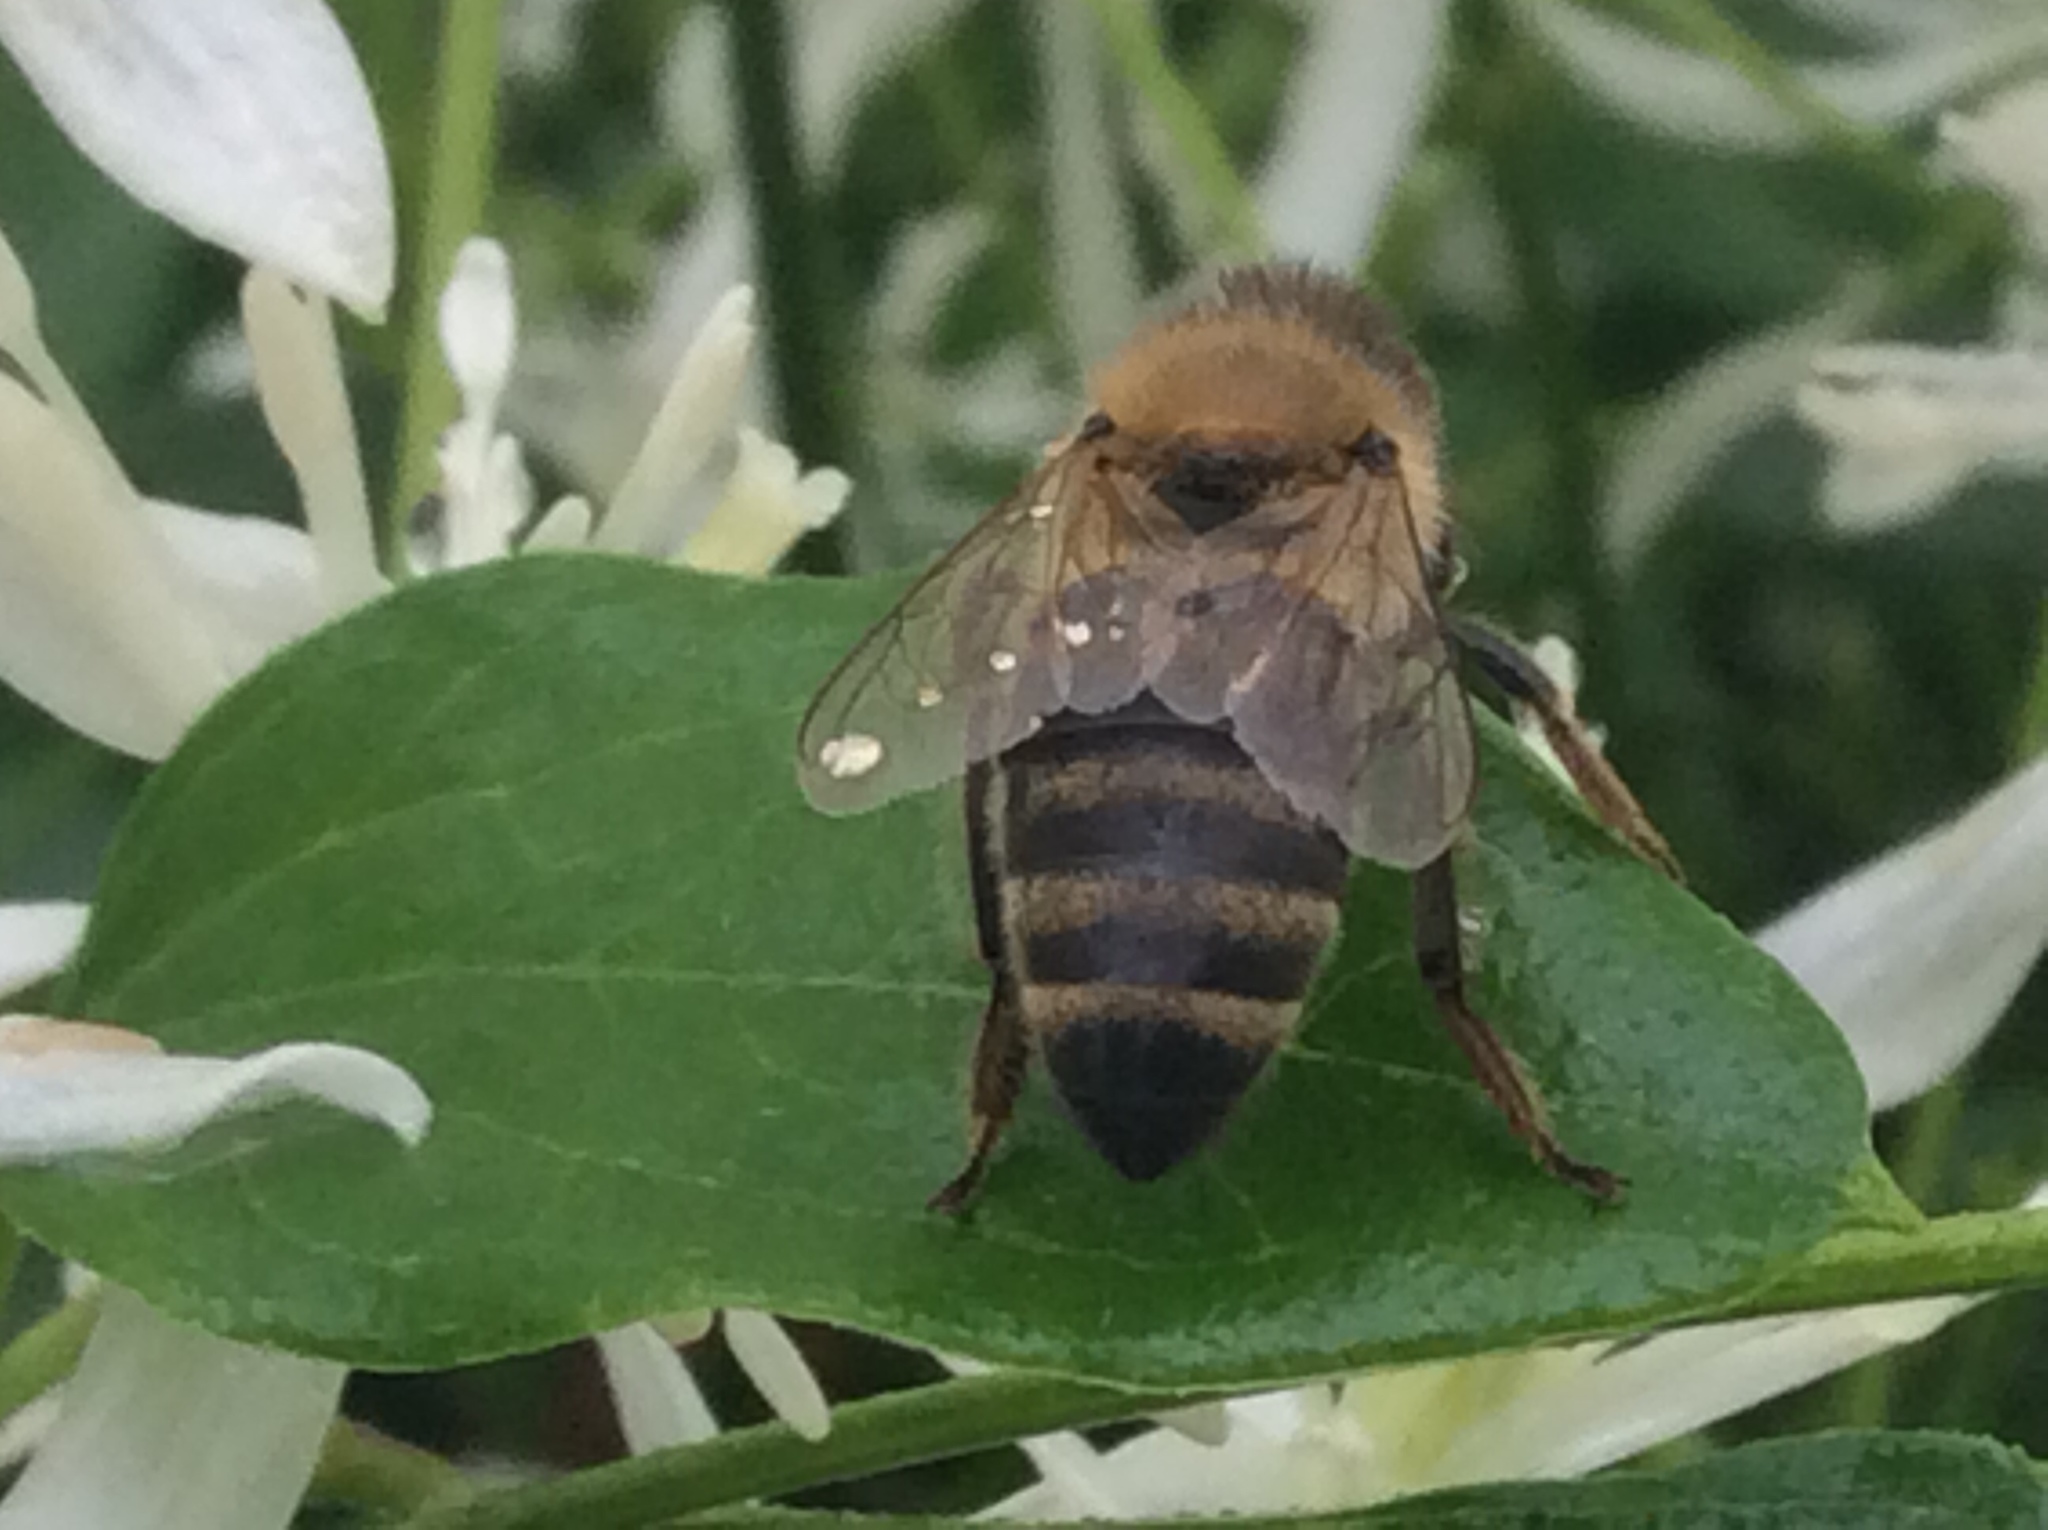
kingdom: Animalia
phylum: Arthropoda
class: Insecta
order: Hymenoptera
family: Apidae
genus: Apis
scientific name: Apis mellifera
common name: Honey bee
